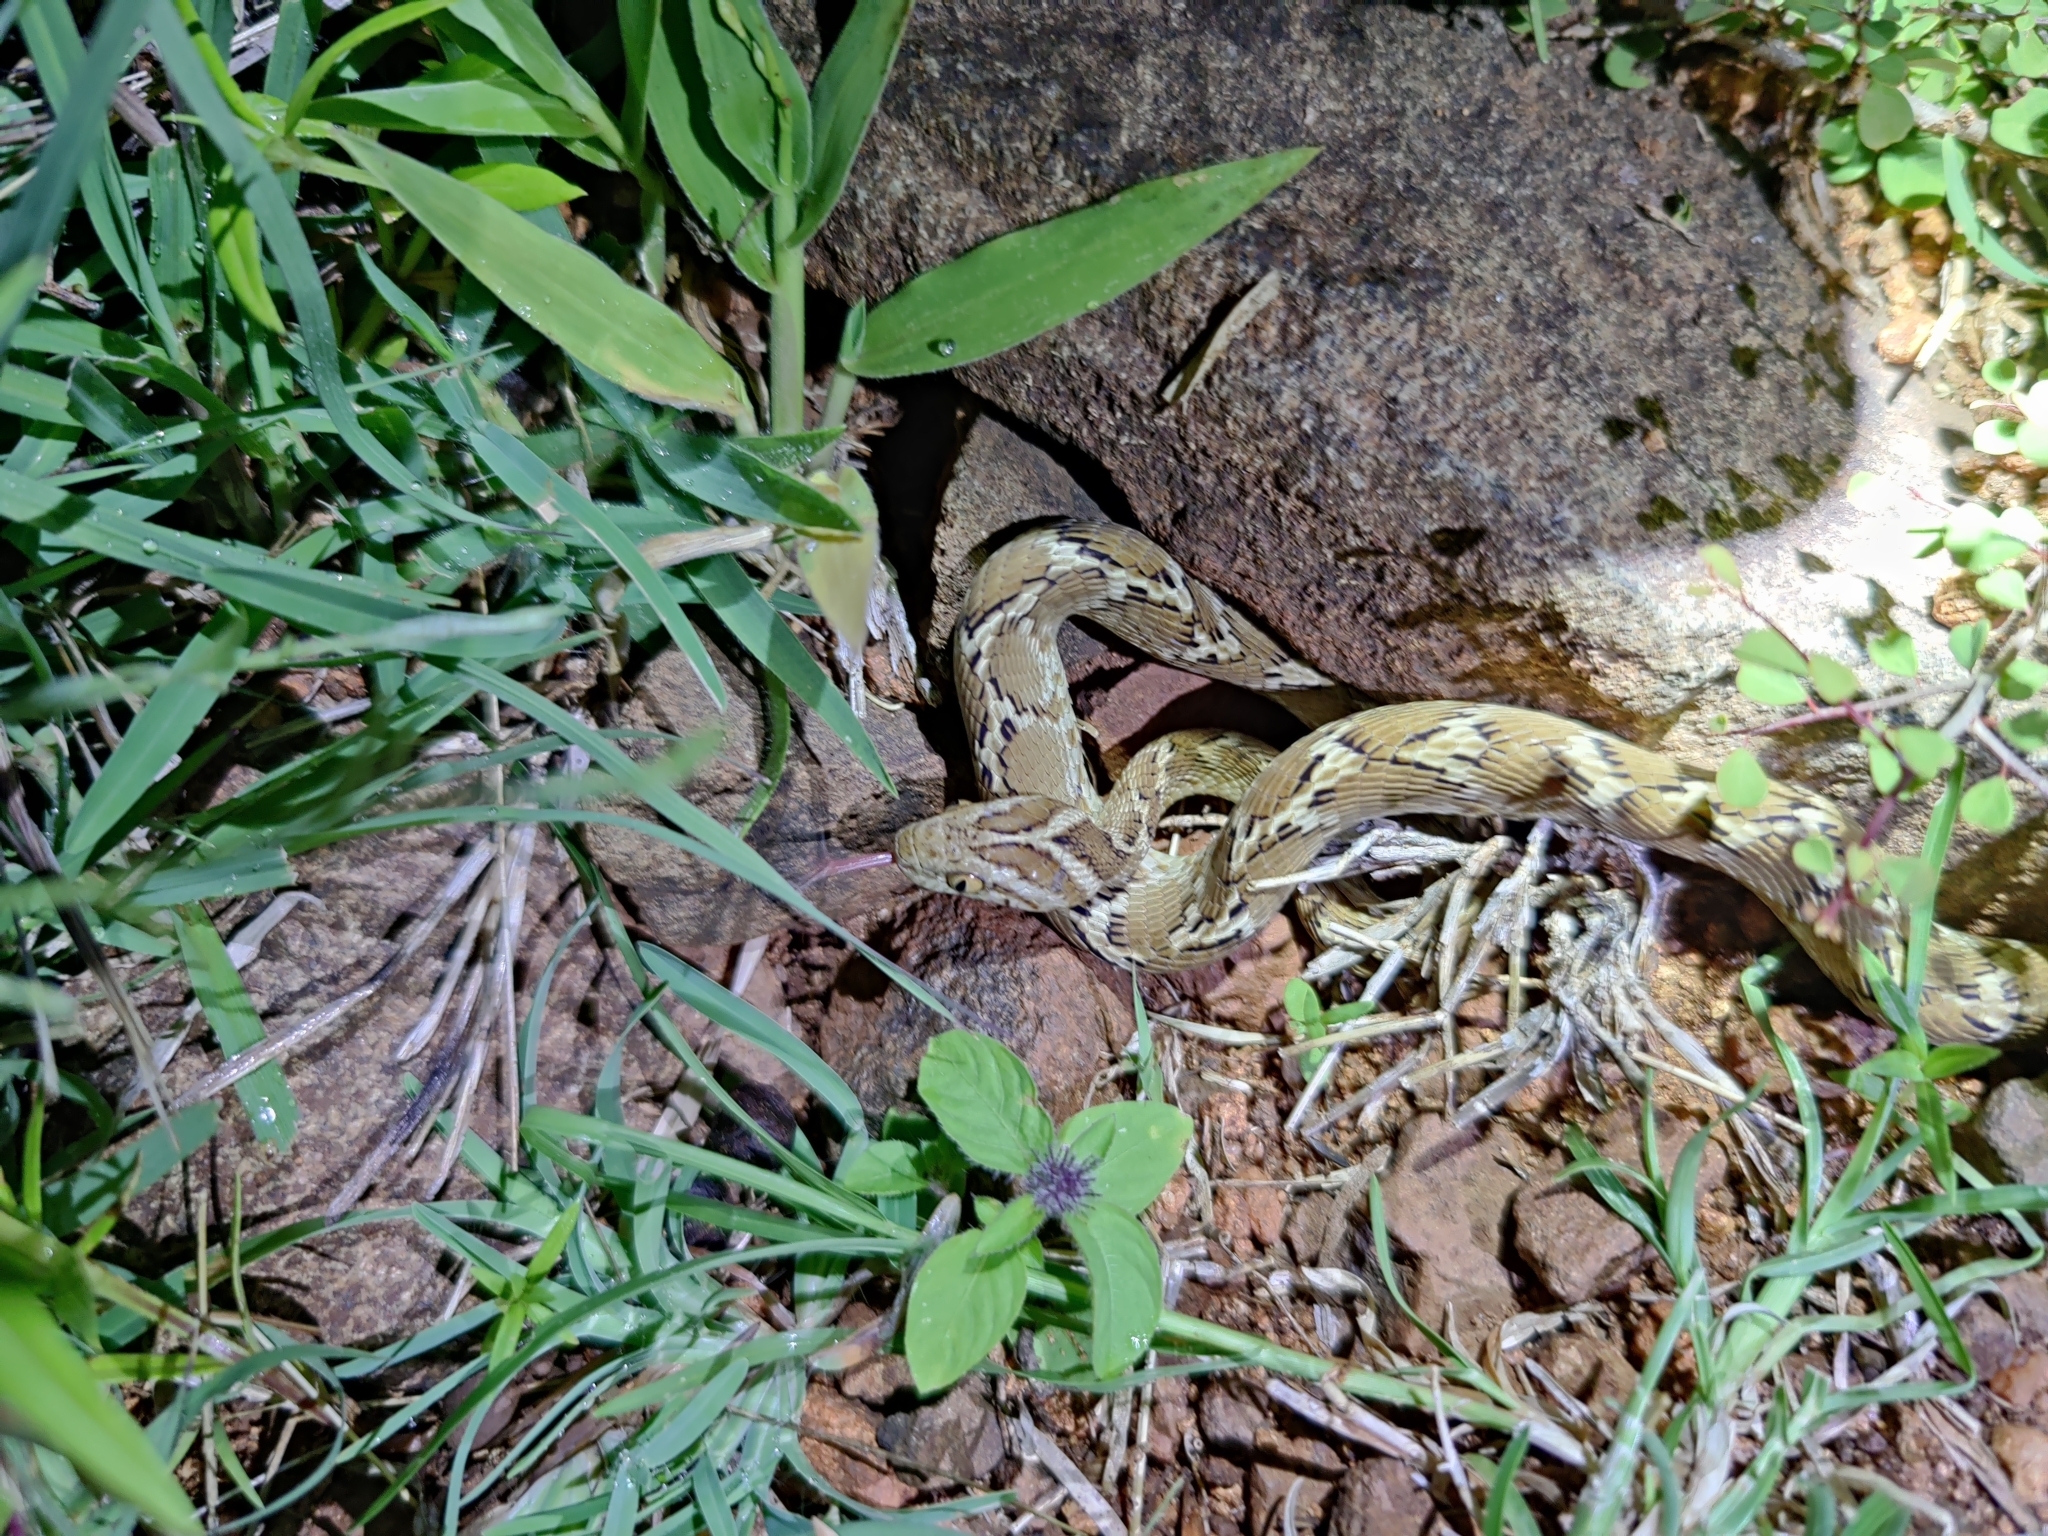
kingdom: Animalia
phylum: Chordata
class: Squamata
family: Colubridae
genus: Boiga
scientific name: Boiga trigonata
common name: Common cat snake
